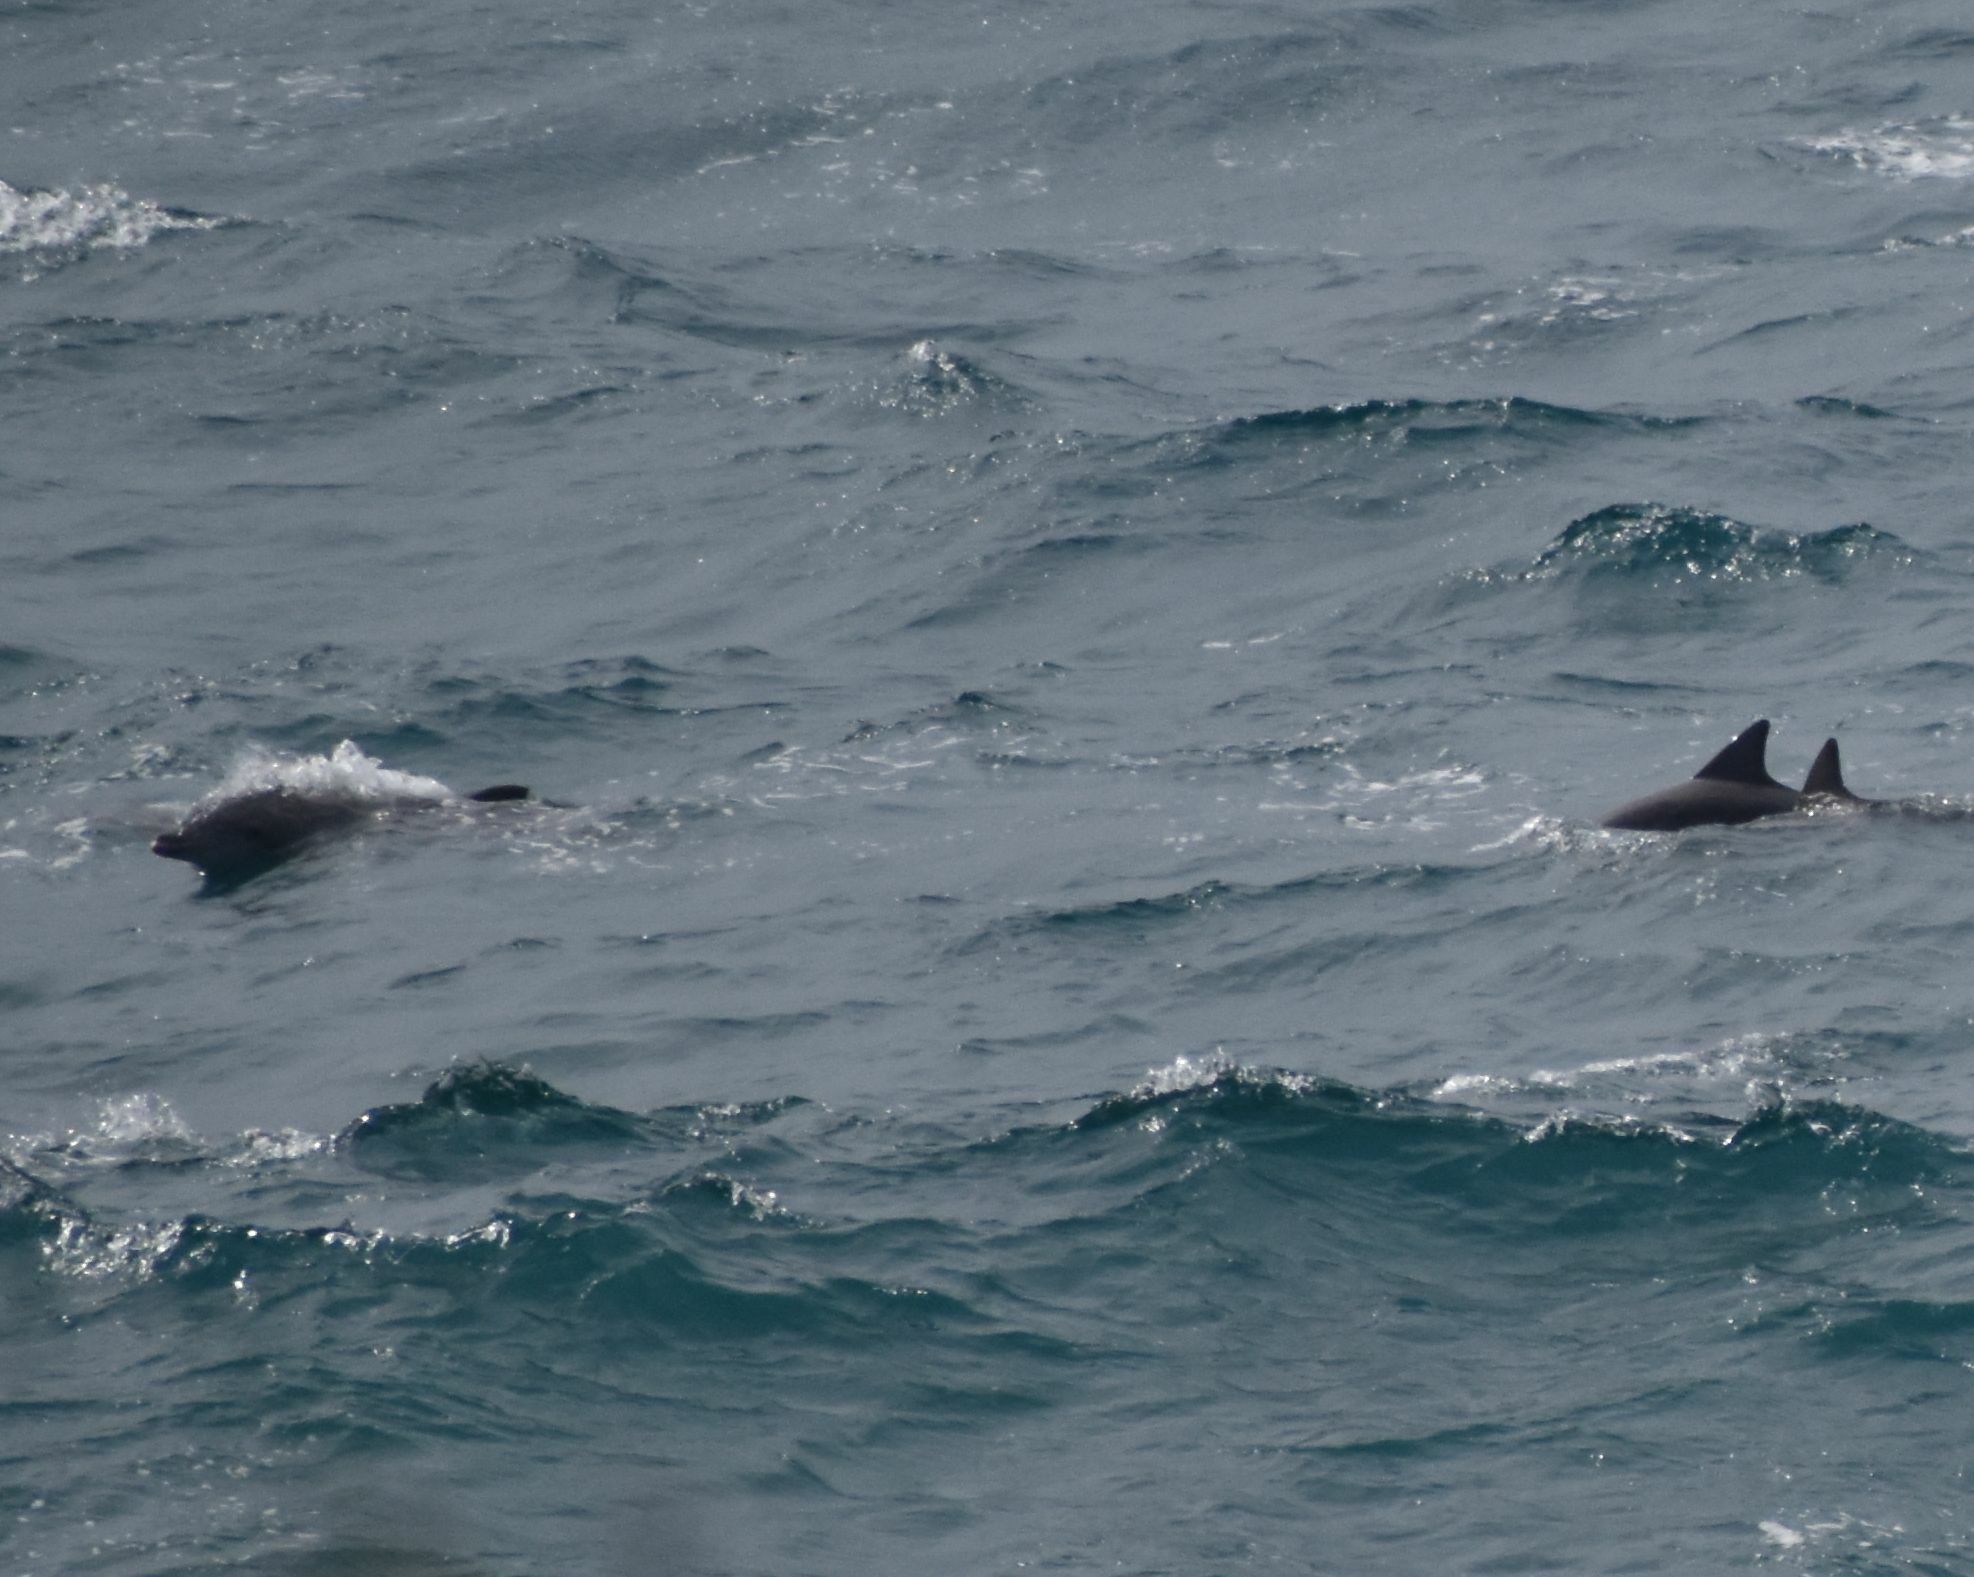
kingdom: Animalia
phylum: Chordata
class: Mammalia
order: Cetacea
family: Delphinidae
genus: Tursiops
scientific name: Tursiops aduncus
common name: Indo-pacific bottlenose dolphin
